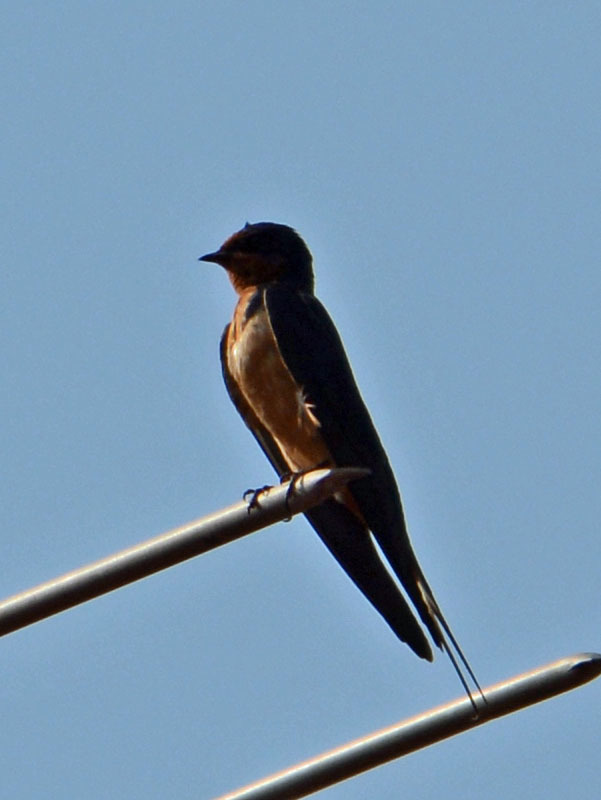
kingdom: Animalia
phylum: Chordata
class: Aves
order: Passeriformes
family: Hirundinidae
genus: Hirundo
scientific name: Hirundo rustica
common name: Barn swallow
